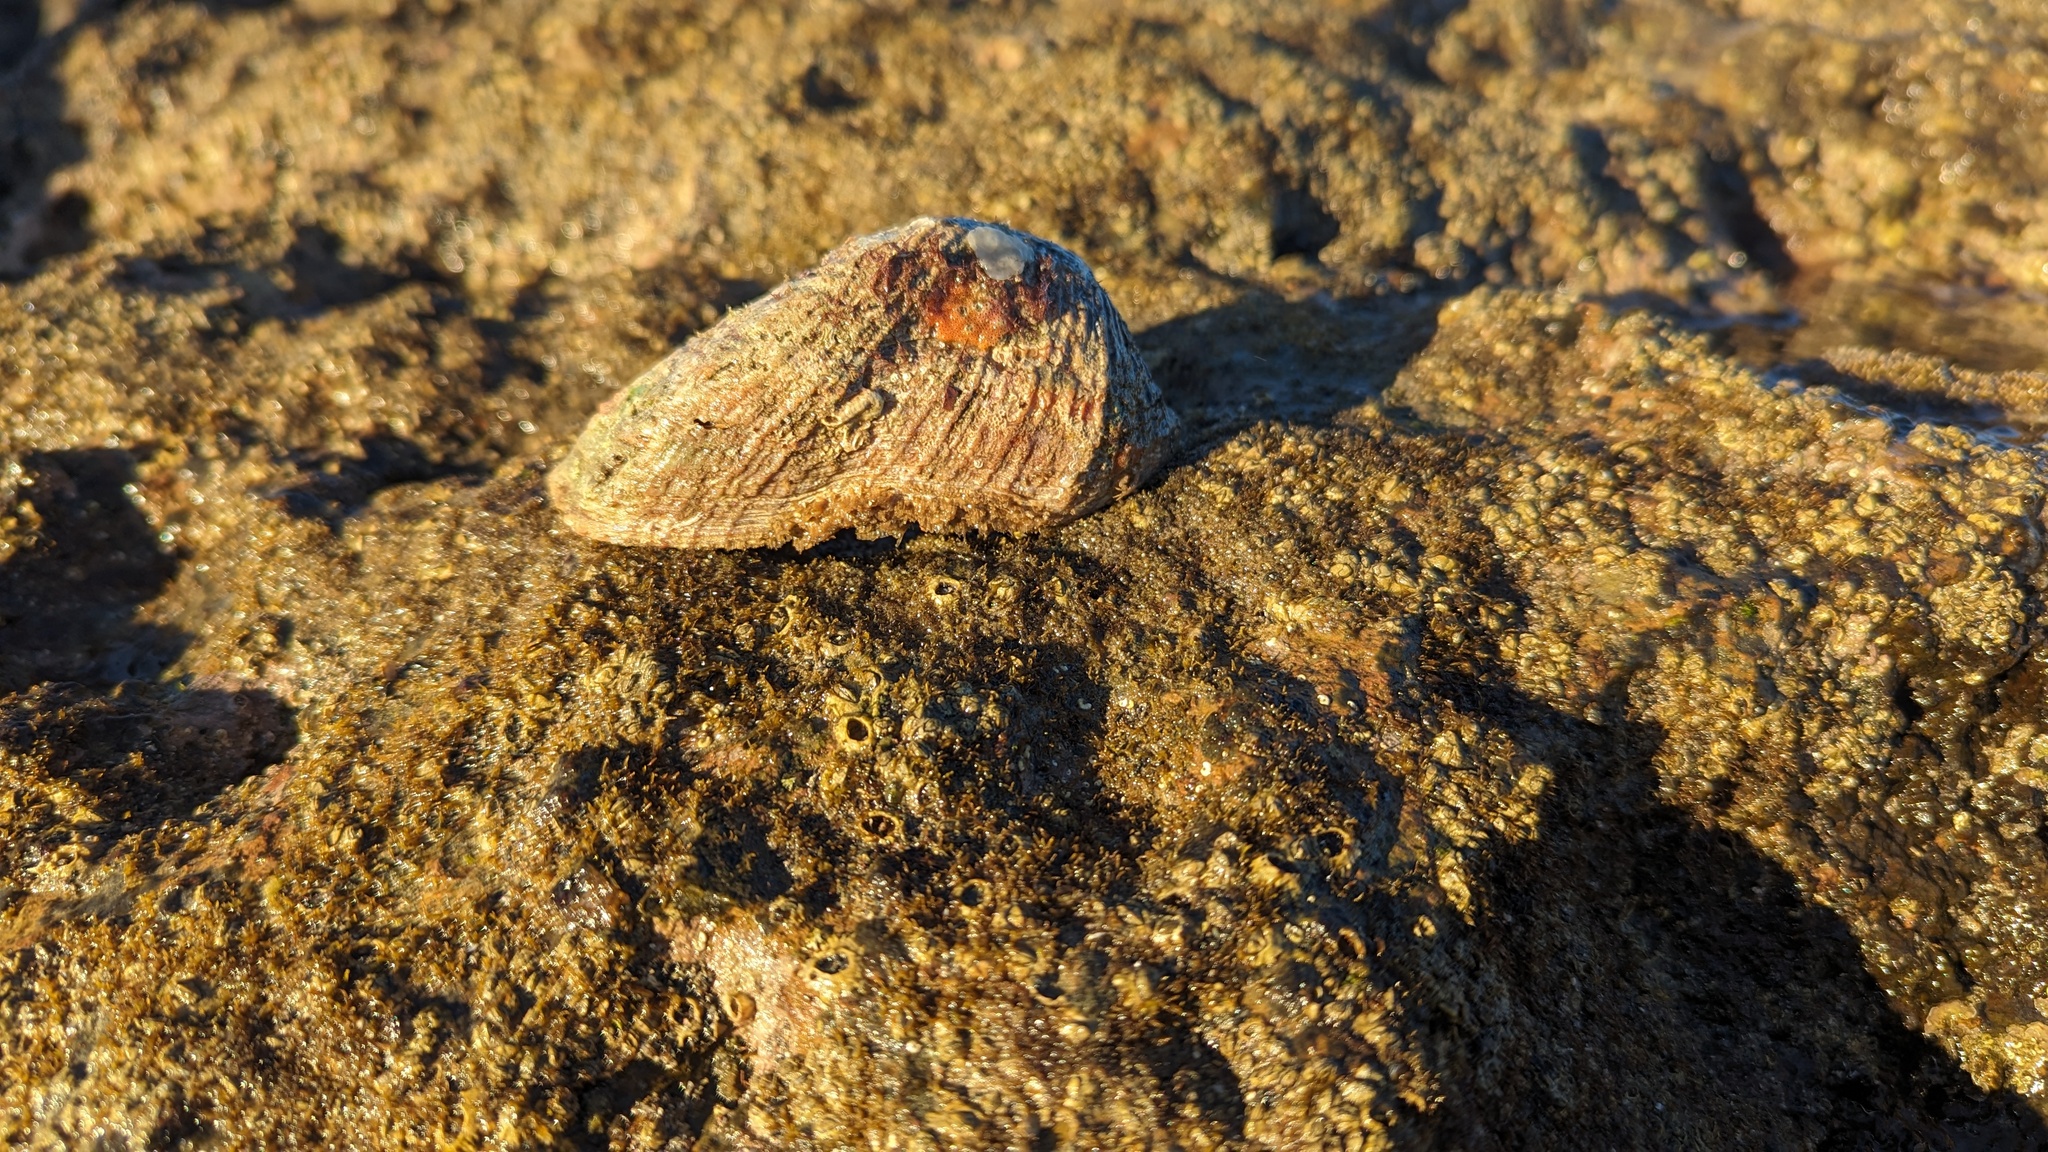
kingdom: Animalia
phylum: Mollusca
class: Bivalvia
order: Arcida
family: Arcidae
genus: Arca
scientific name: Arca pacifica
